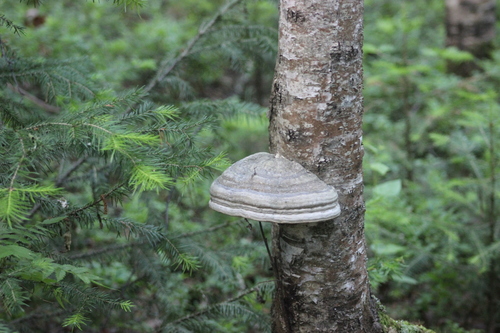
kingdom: Fungi
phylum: Basidiomycota
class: Agaricomycetes
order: Polyporales
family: Polyporaceae
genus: Fomes
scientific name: Fomes fomentarius
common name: Hoof fungus
